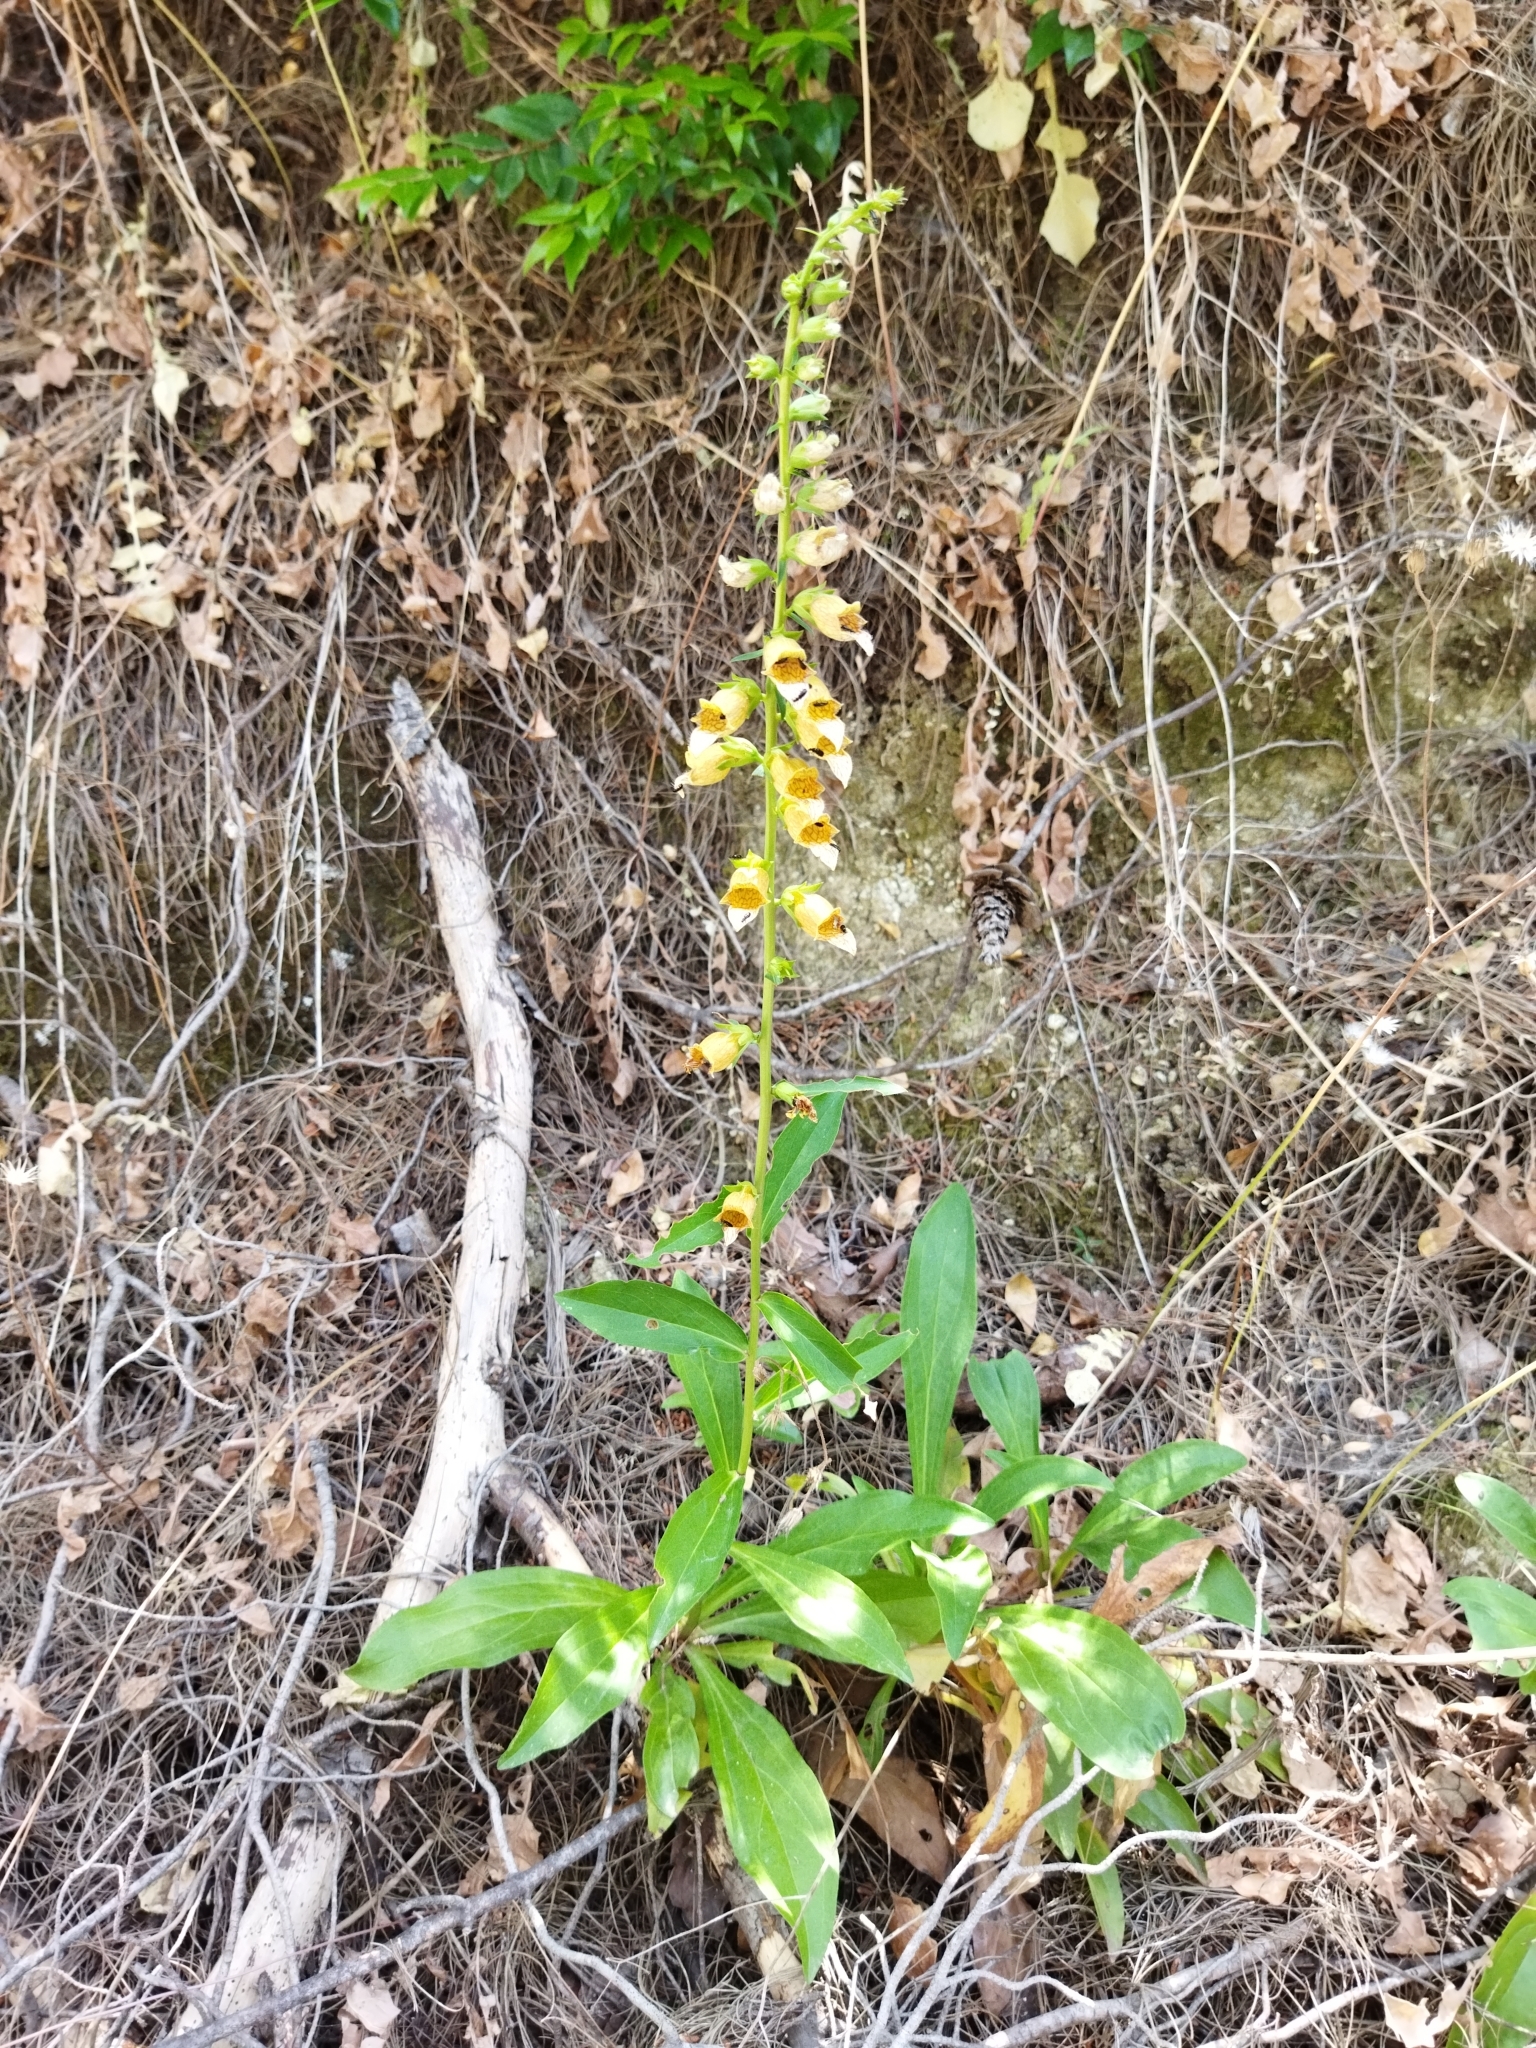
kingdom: Plantae
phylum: Tracheophyta
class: Magnoliopsida
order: Lamiales
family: Plantaginaceae
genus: Digitalis
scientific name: Digitalis laevigata
